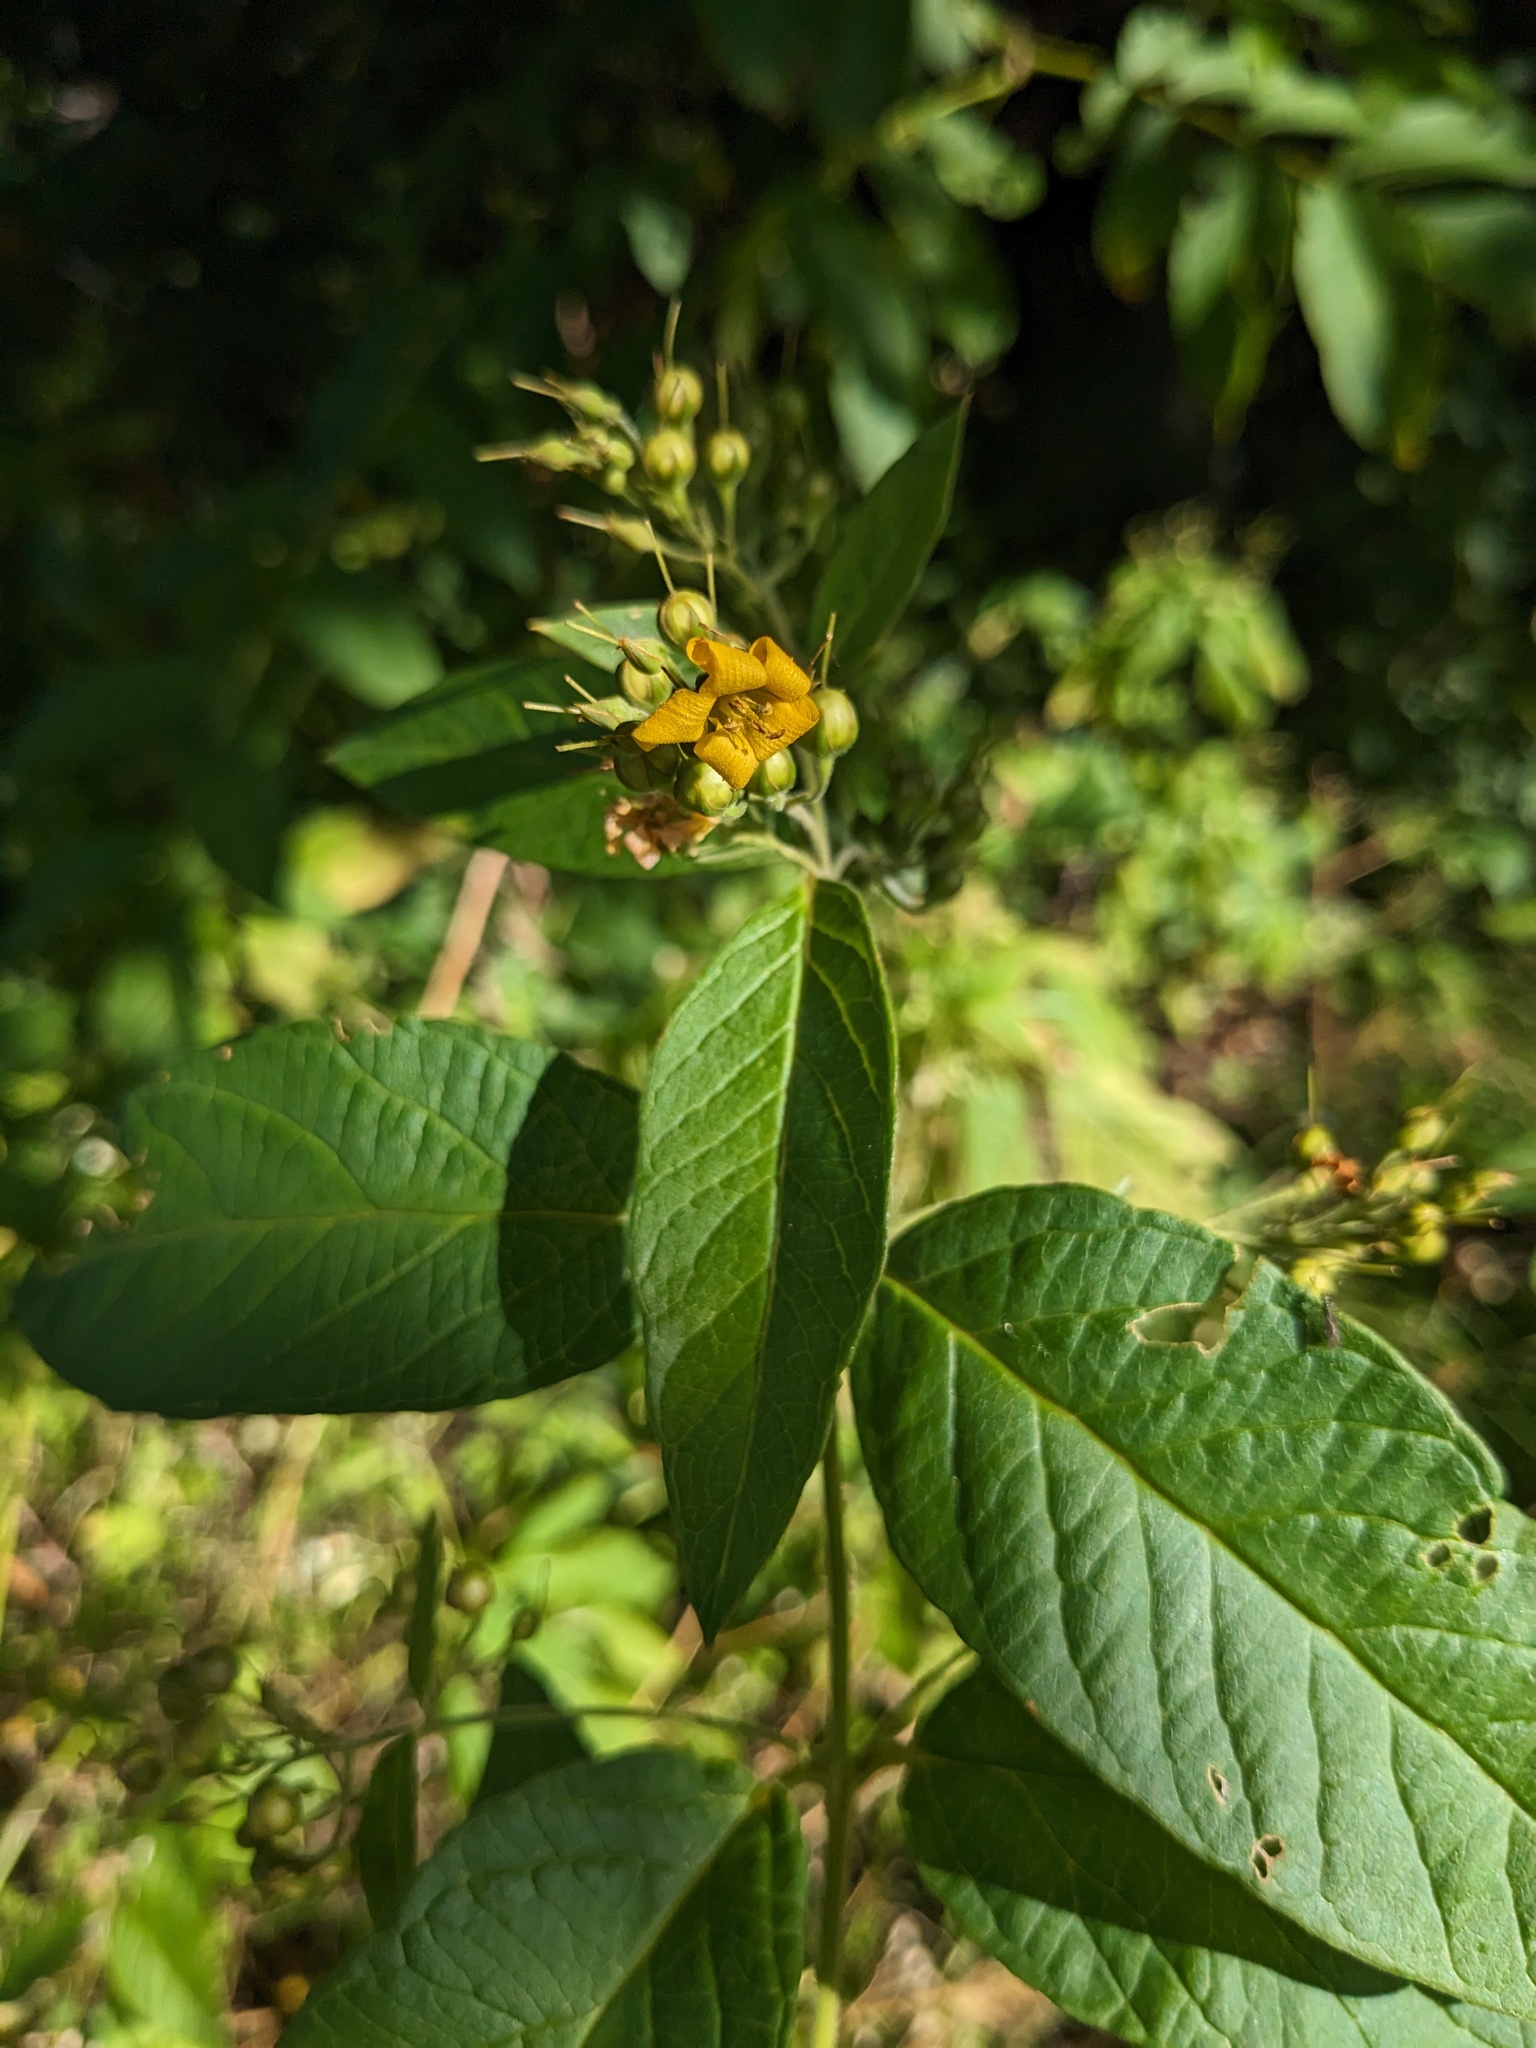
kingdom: Plantae
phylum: Tracheophyta
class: Magnoliopsida
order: Ericales
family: Primulaceae
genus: Lysimachia
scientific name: Lysimachia vulgaris
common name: Yellow loosestrife
